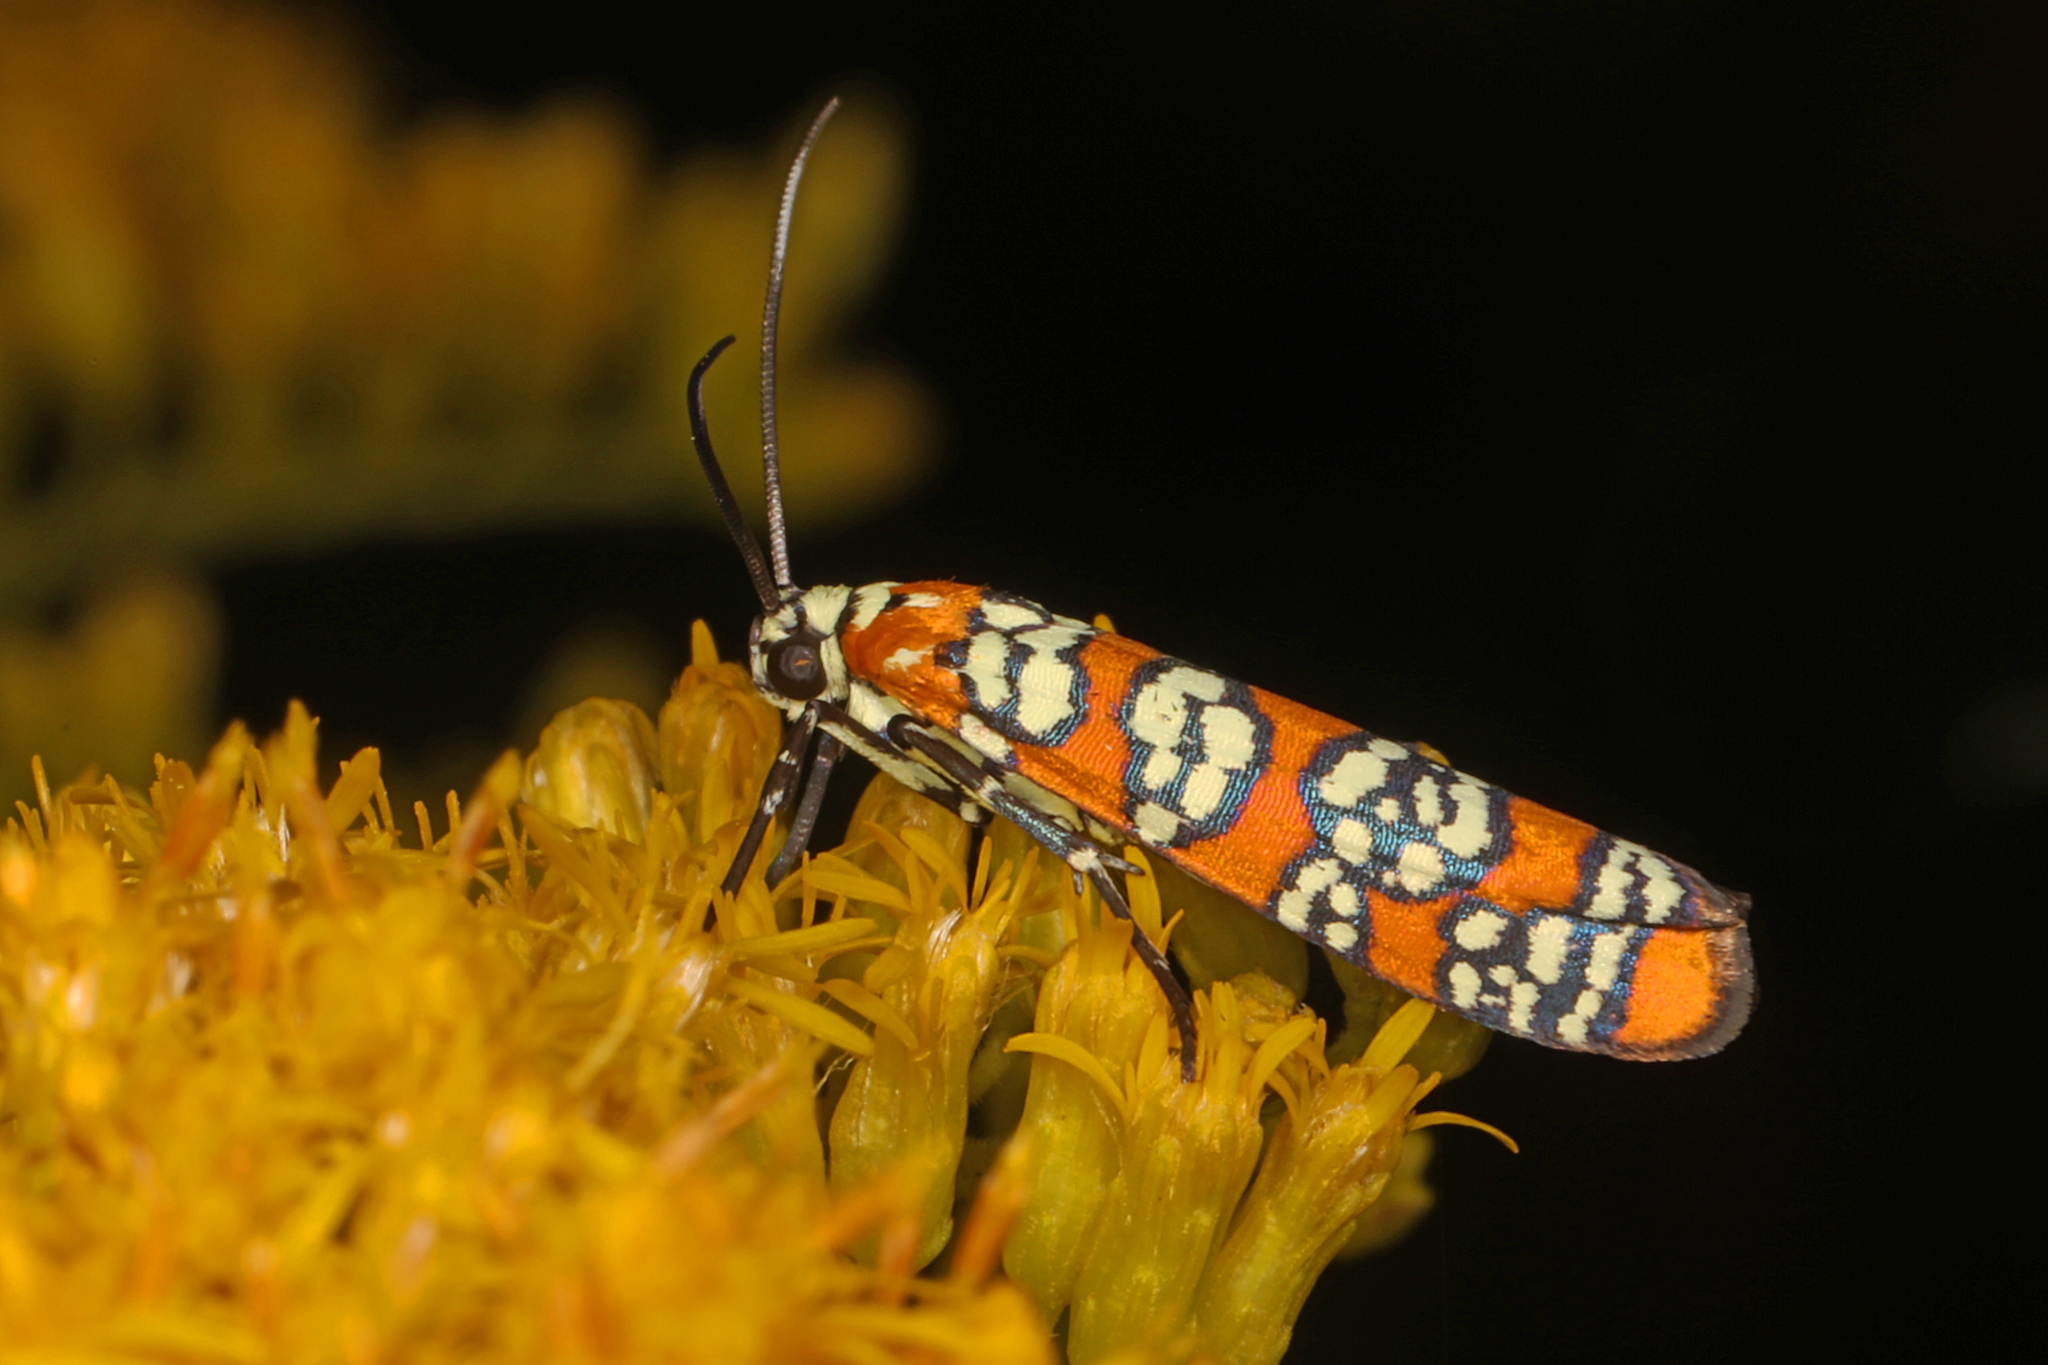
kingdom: Animalia
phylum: Arthropoda
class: Insecta
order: Lepidoptera
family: Attevidae
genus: Atteva
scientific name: Atteva punctella
